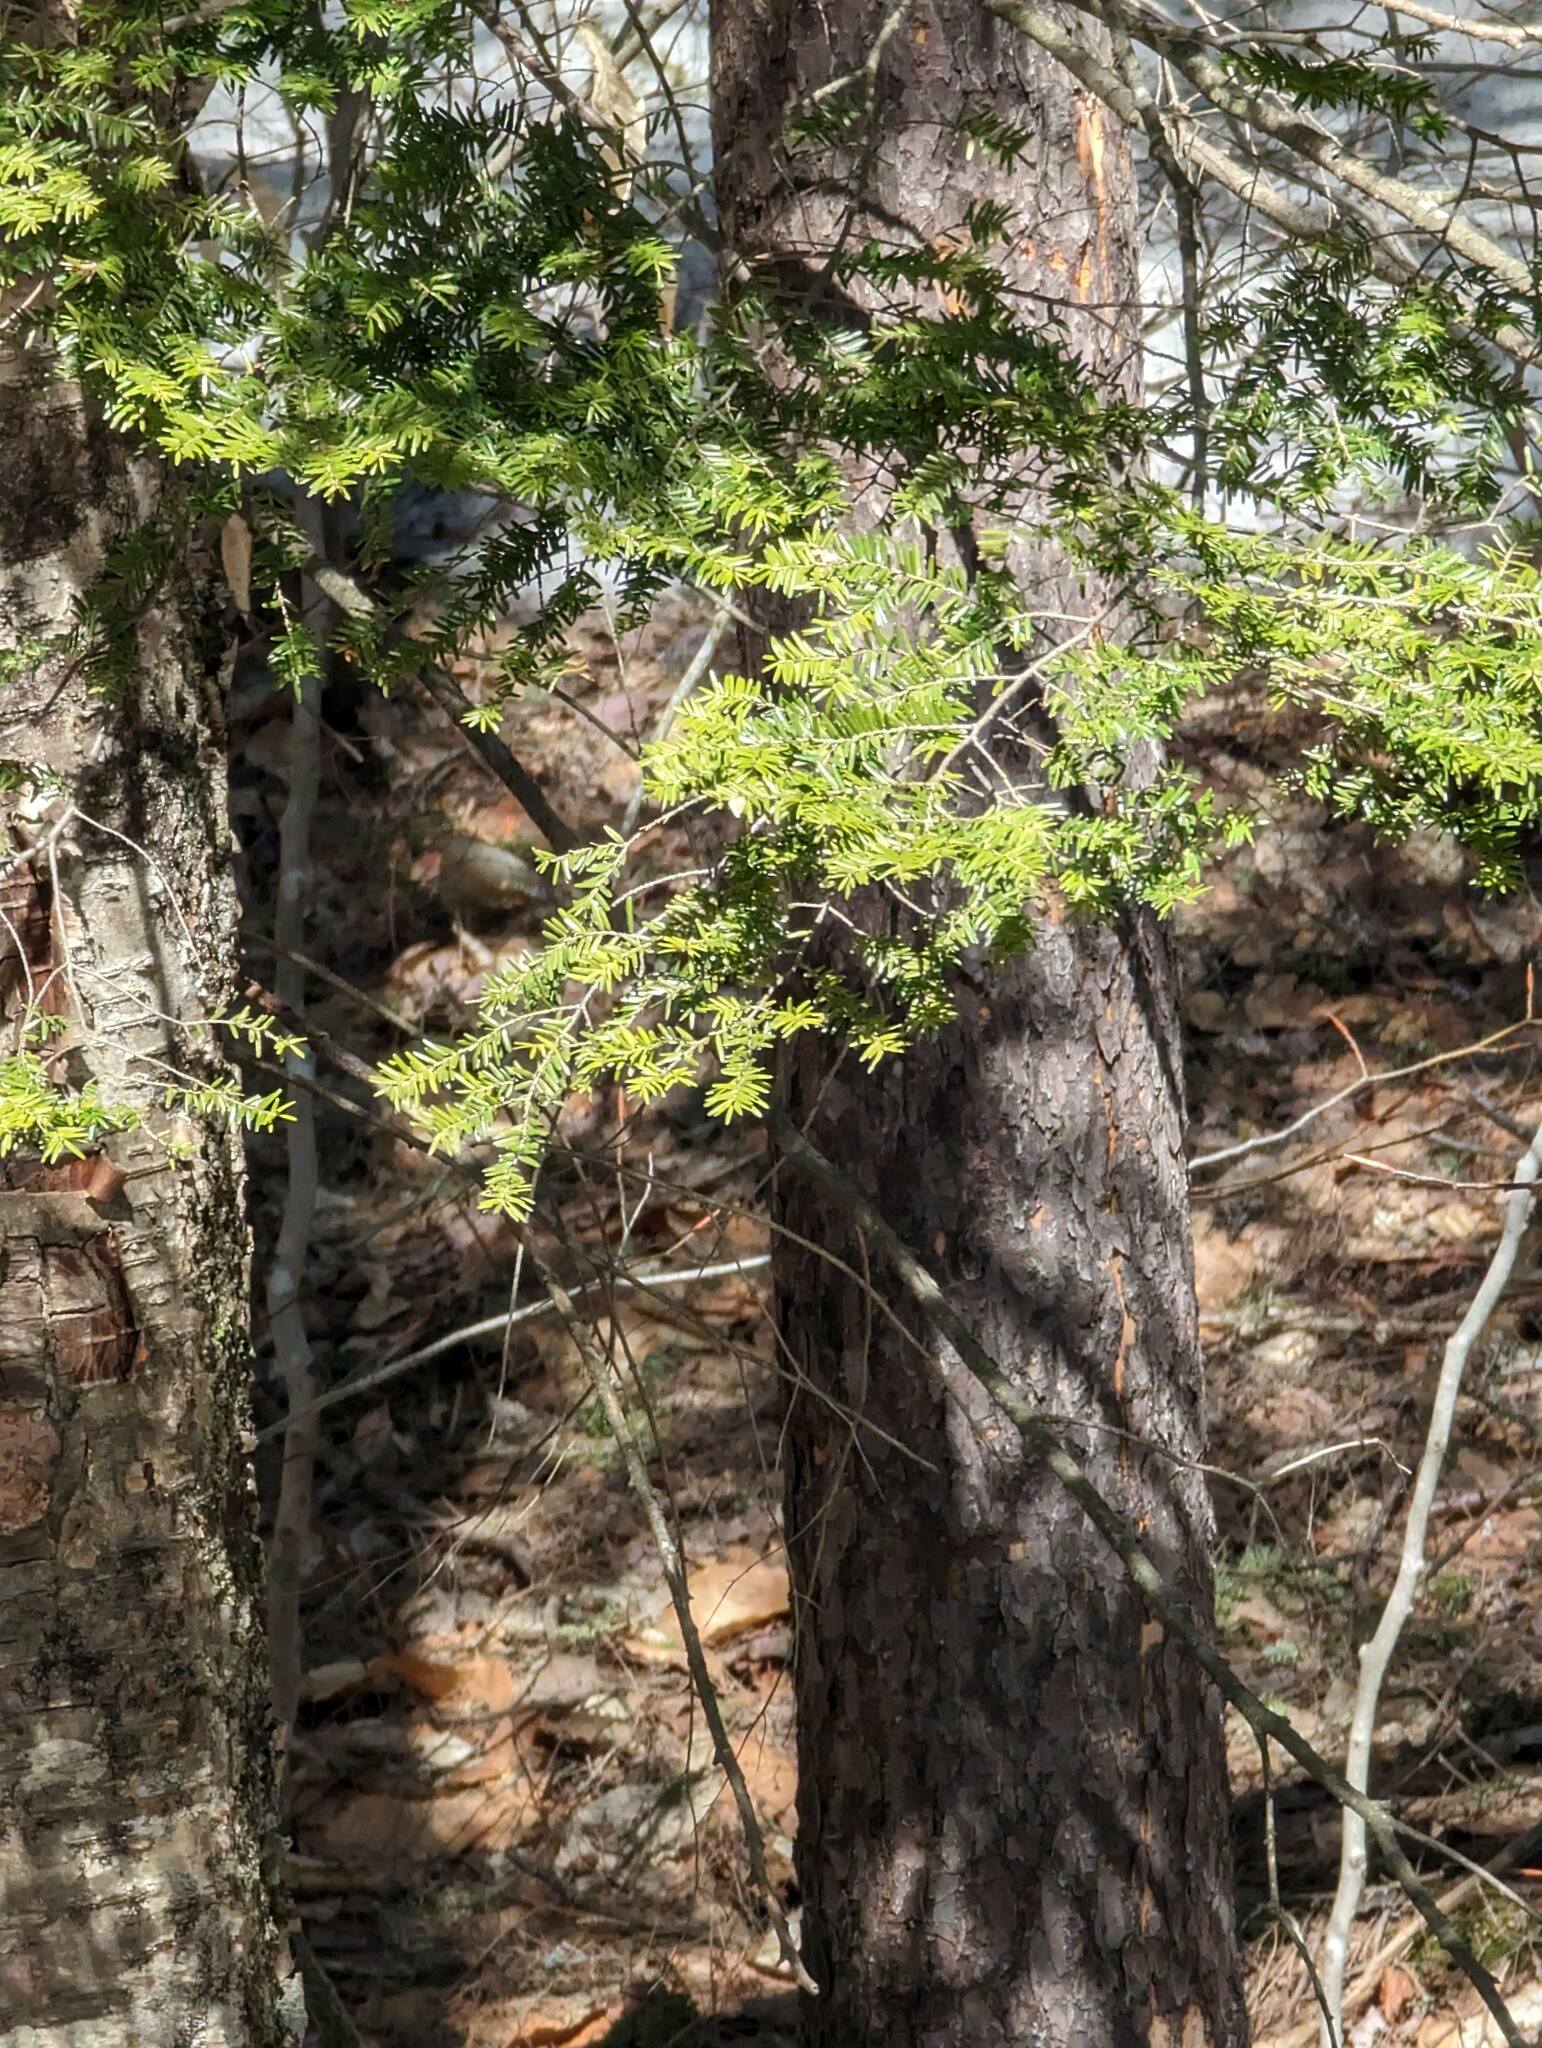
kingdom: Plantae
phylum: Tracheophyta
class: Pinopsida
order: Pinales
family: Pinaceae
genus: Tsuga
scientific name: Tsuga canadensis
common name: Eastern hemlock
